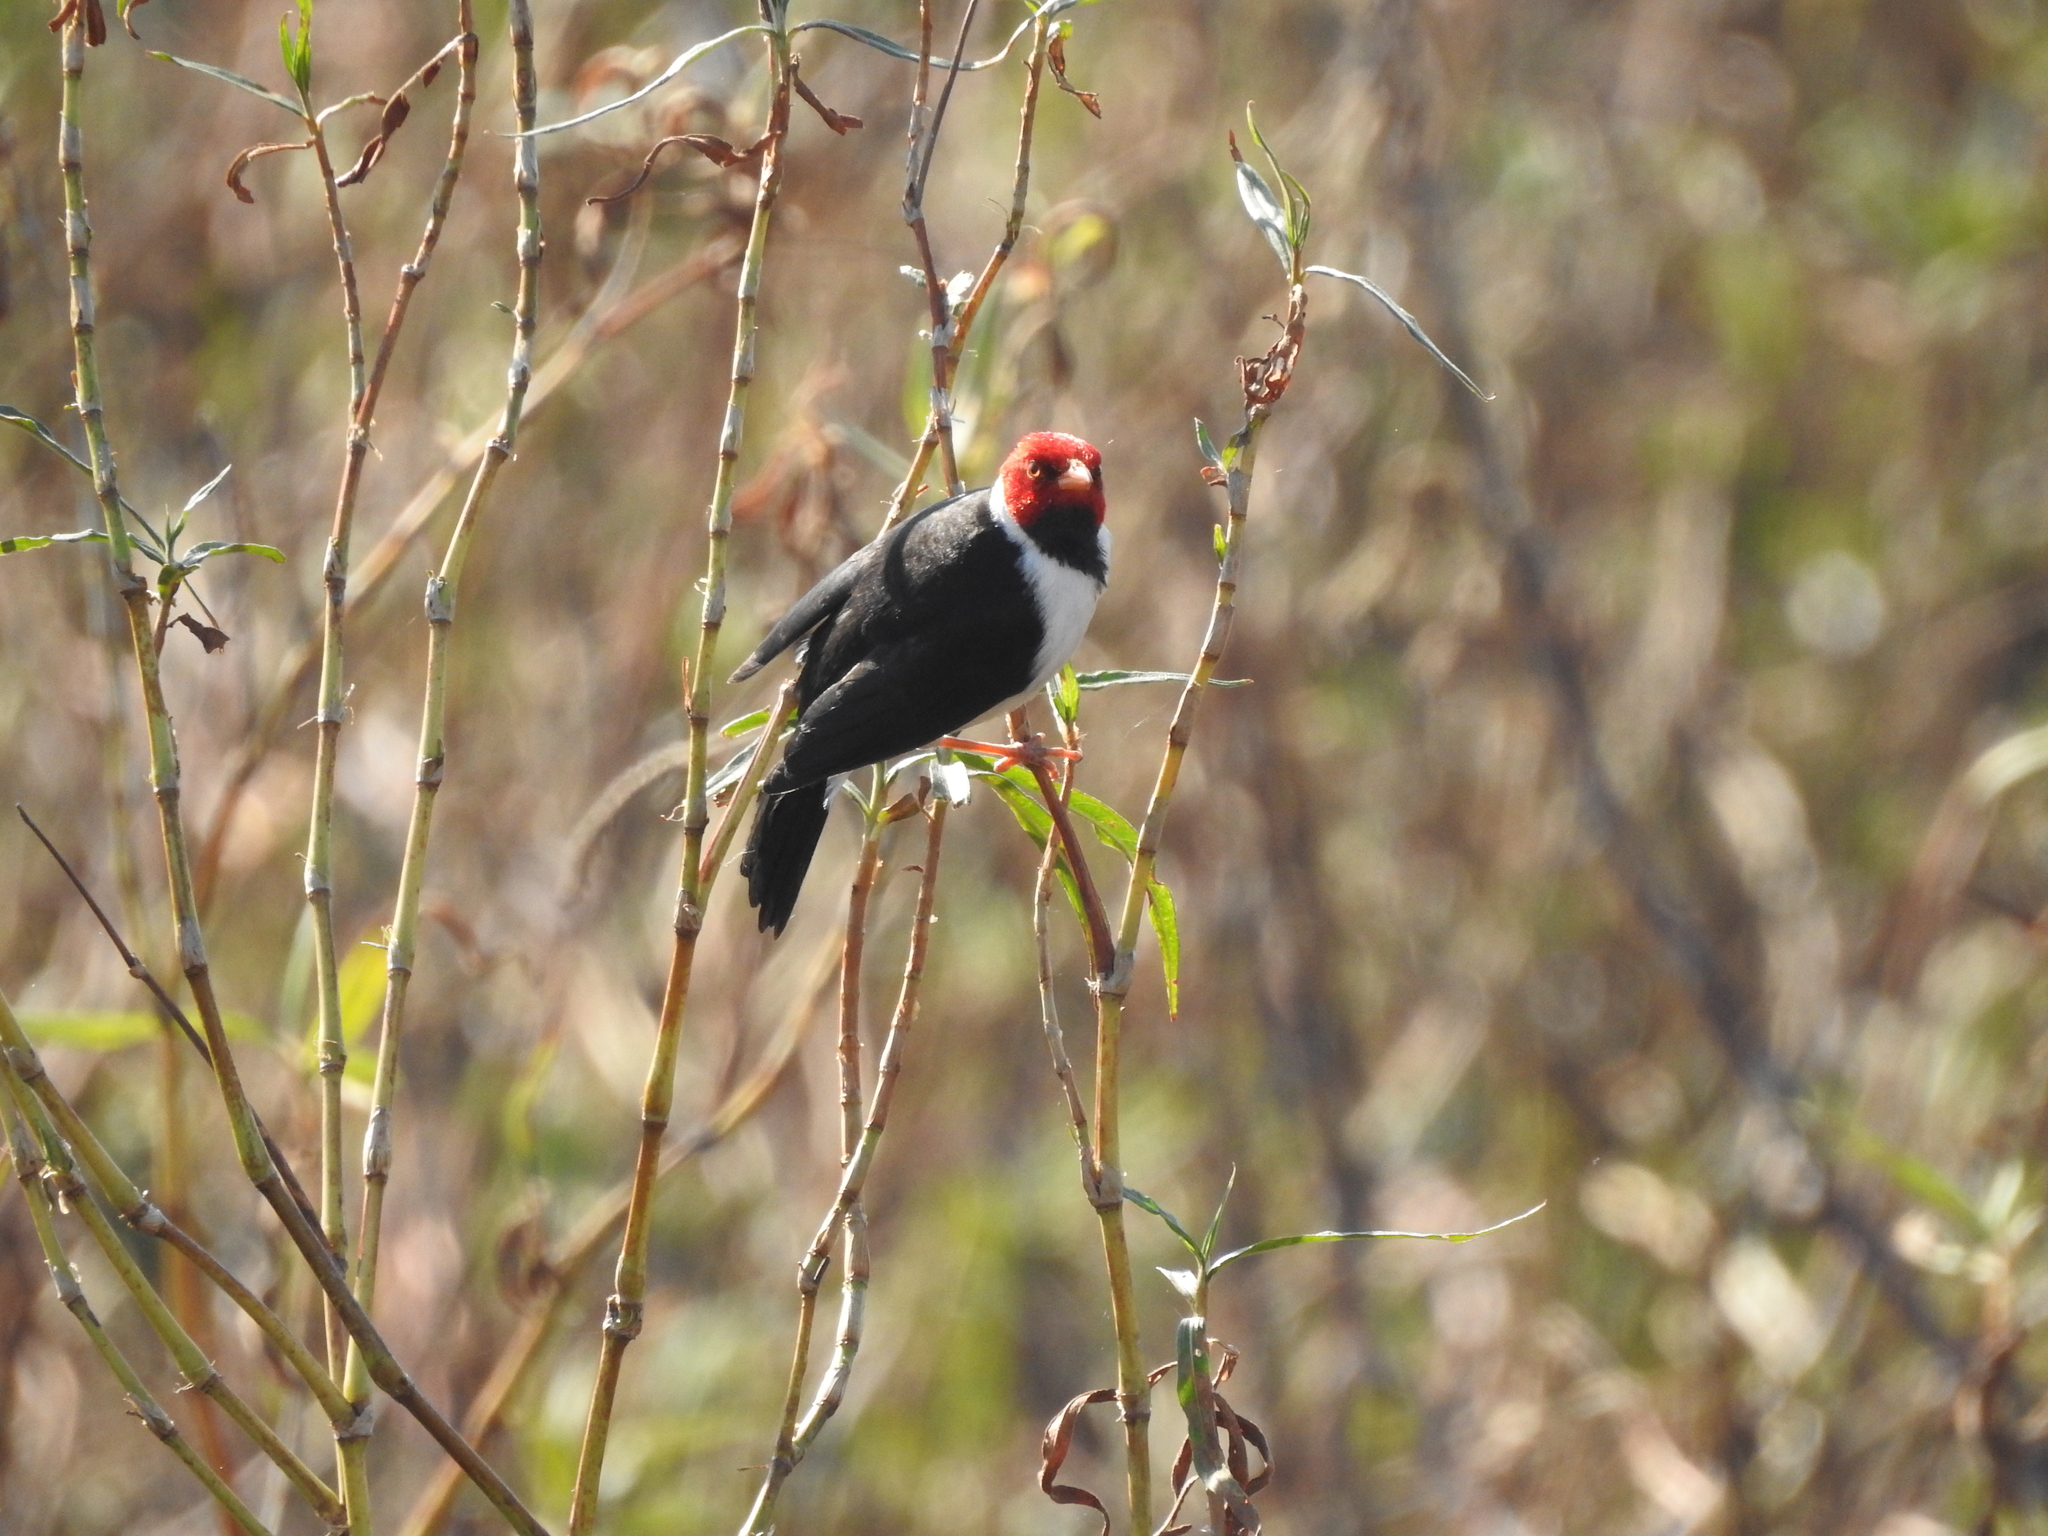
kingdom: Animalia
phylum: Chordata
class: Aves
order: Passeriformes
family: Thraupidae
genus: Paroaria
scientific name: Paroaria capitata
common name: Yellow-billed cardinal
